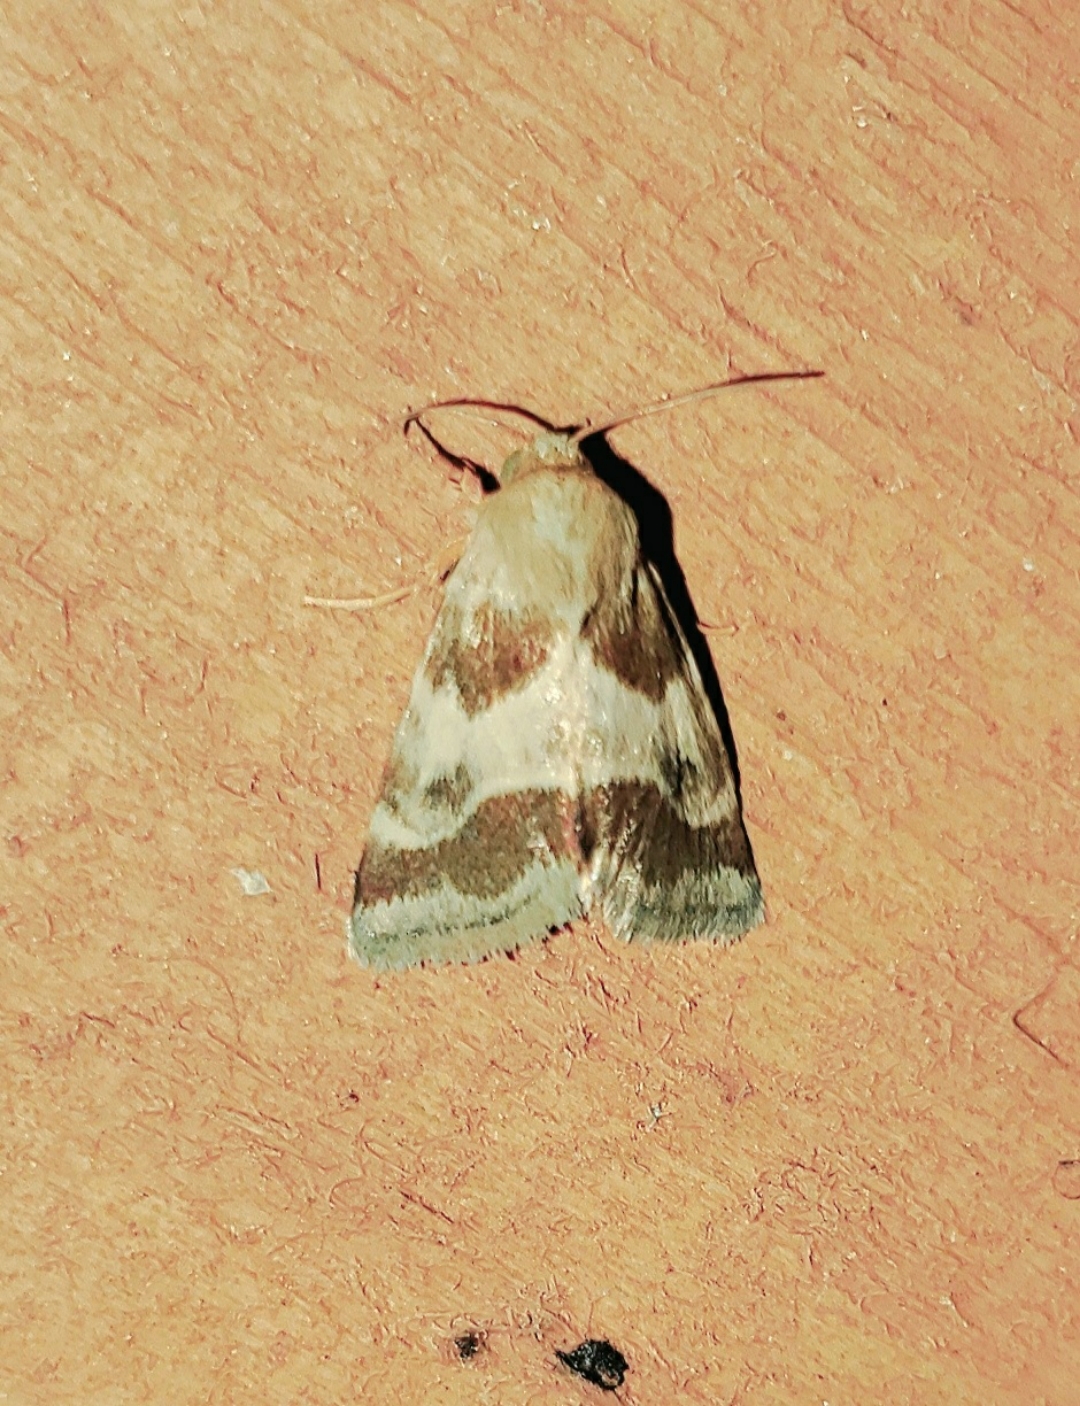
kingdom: Animalia
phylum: Arthropoda
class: Insecta
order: Lepidoptera
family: Noctuidae
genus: Schinia
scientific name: Schinia lynx
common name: Lynx flower moth
